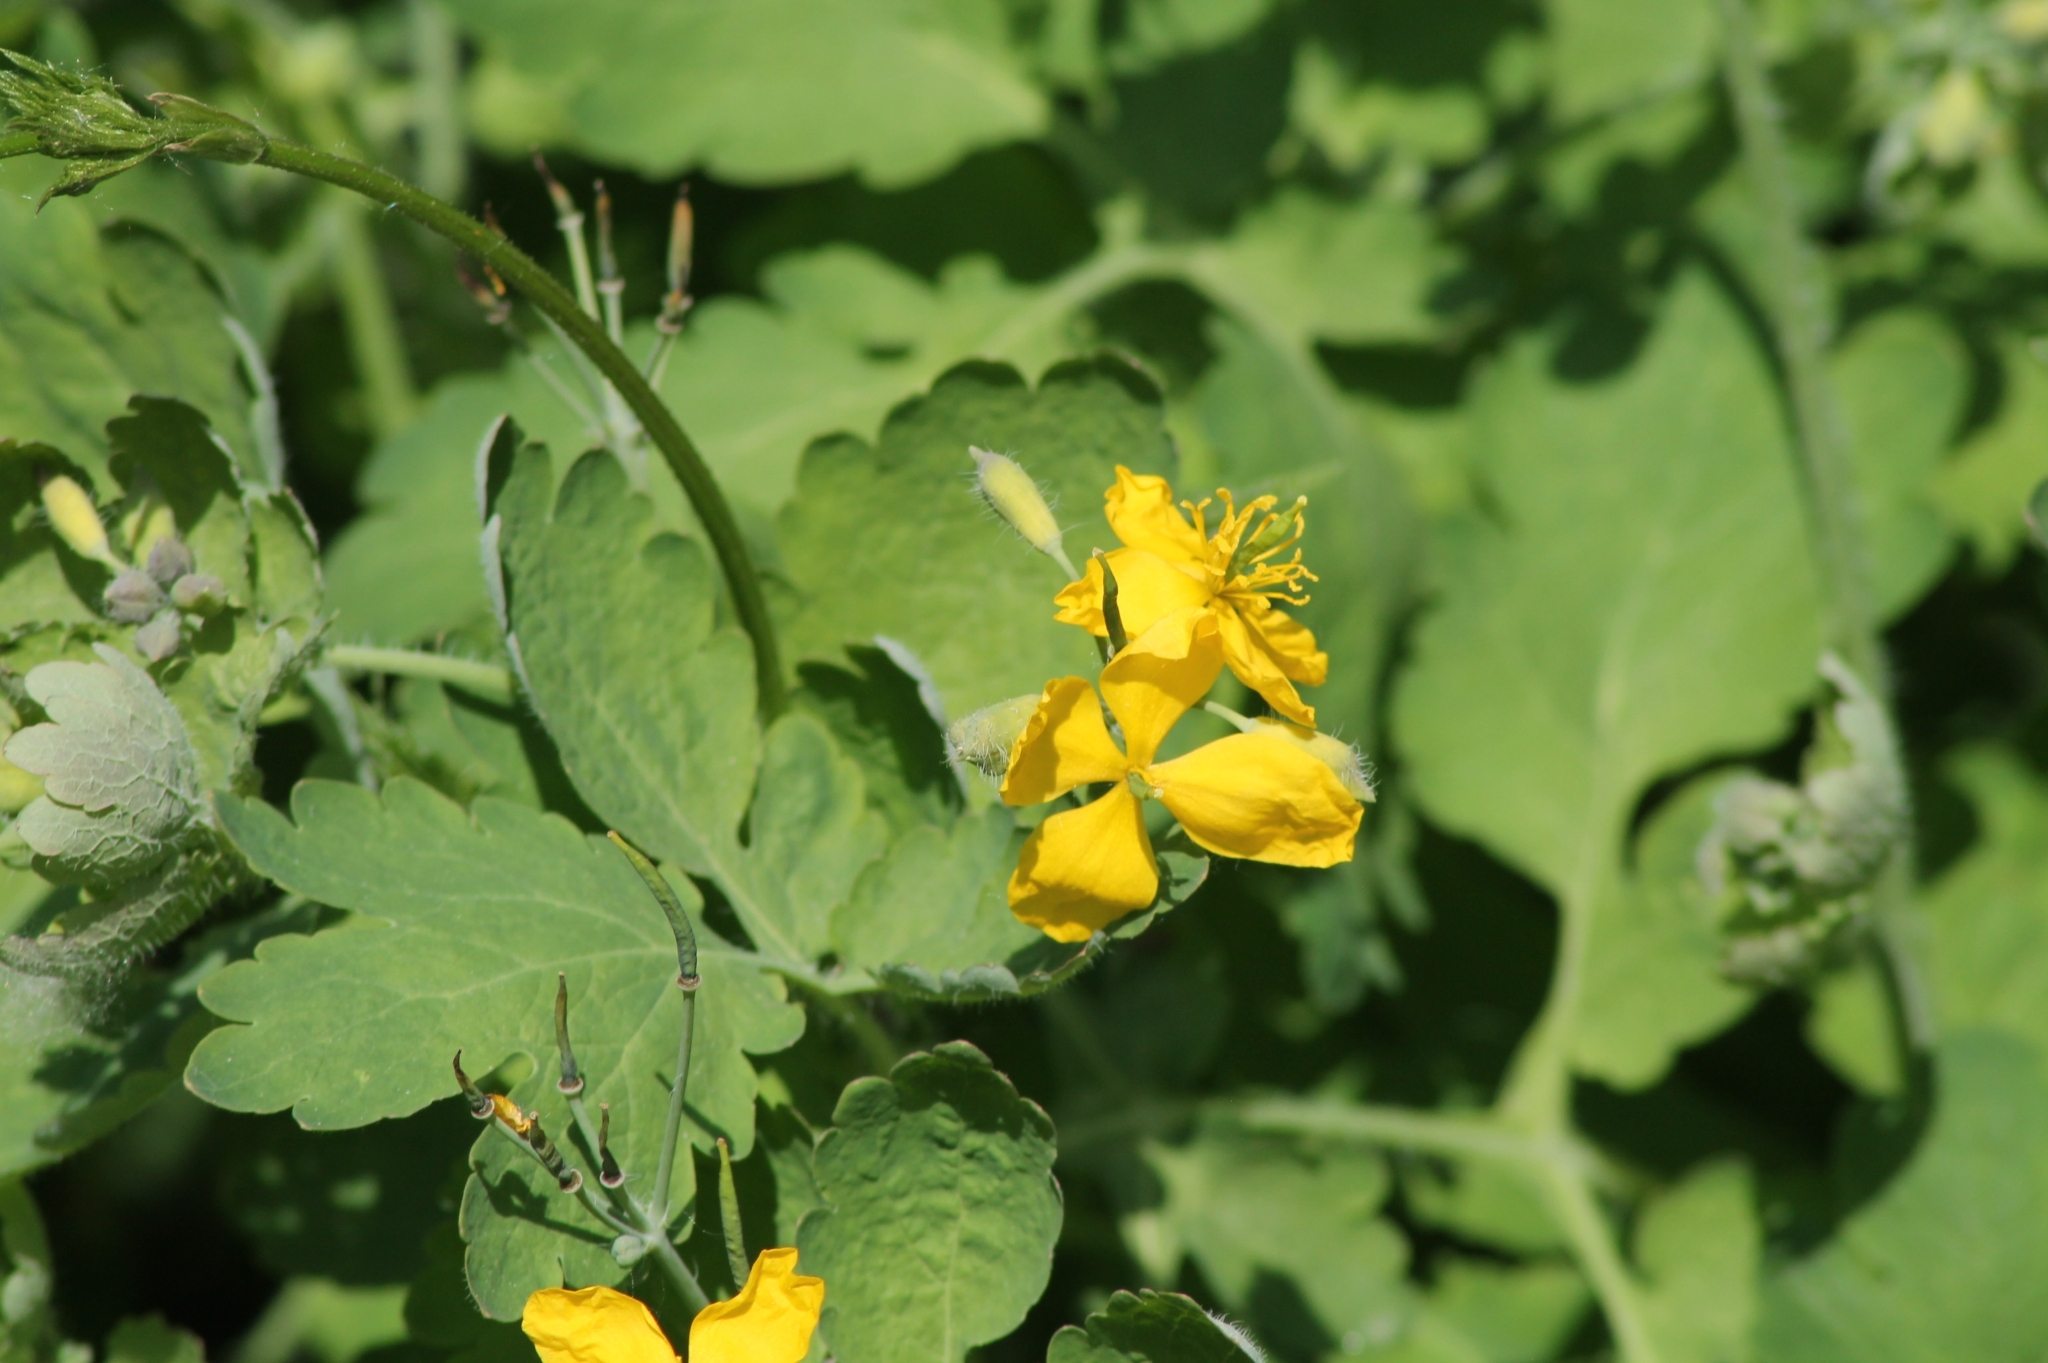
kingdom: Plantae
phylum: Tracheophyta
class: Magnoliopsida
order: Ranunculales
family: Papaveraceae
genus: Chelidonium
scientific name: Chelidonium majus
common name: Greater celandine
